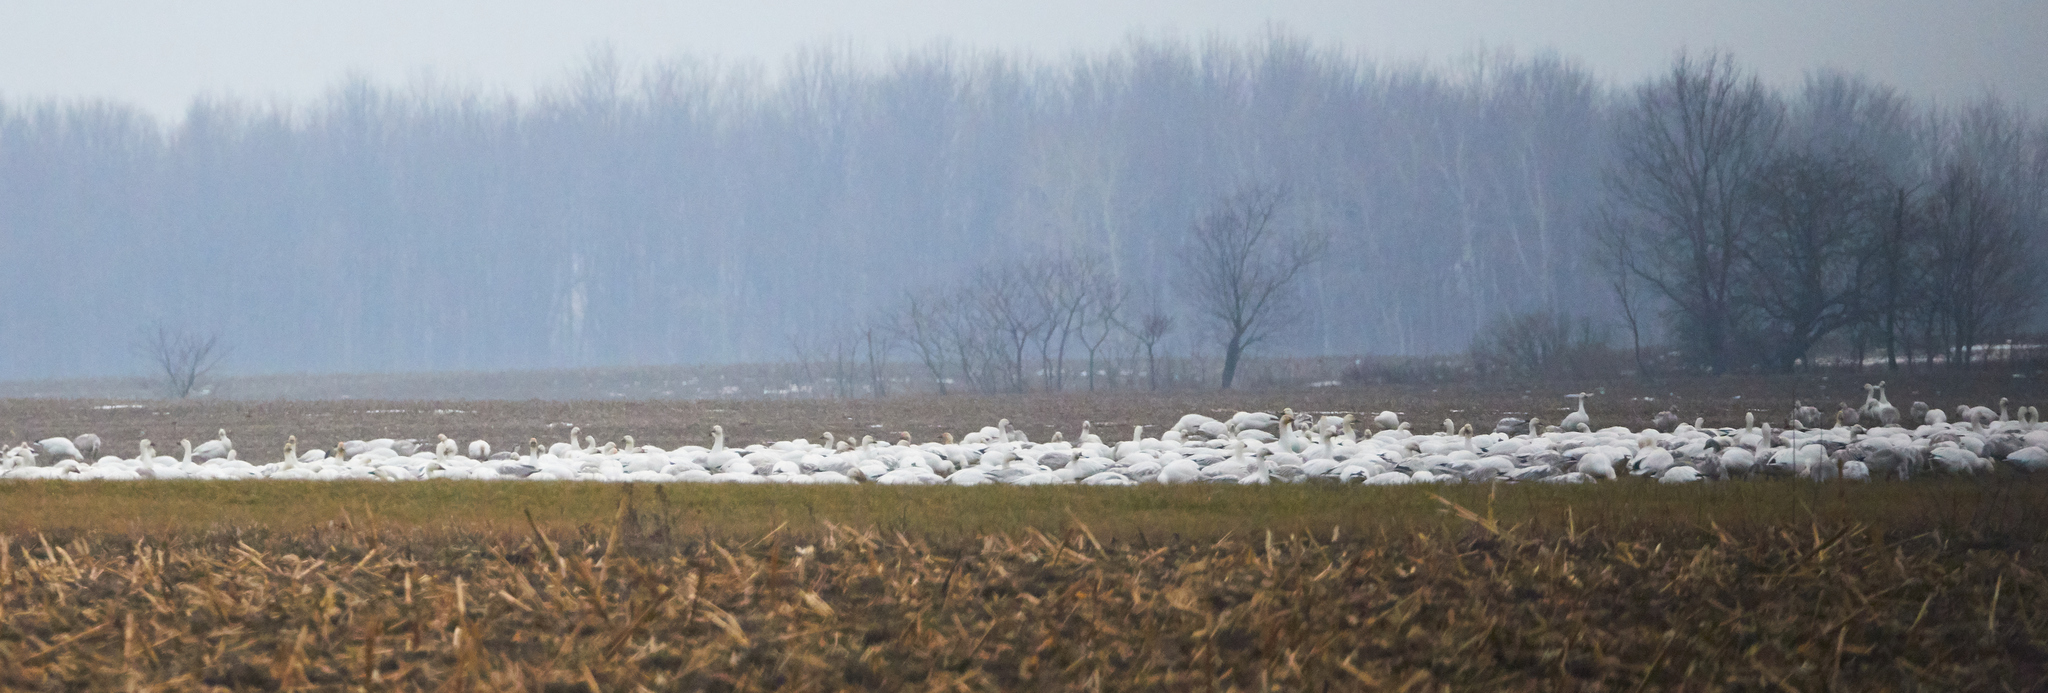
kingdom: Animalia
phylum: Chordata
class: Aves
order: Anseriformes
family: Anatidae
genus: Anser
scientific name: Anser caerulescens
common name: Snow goose
